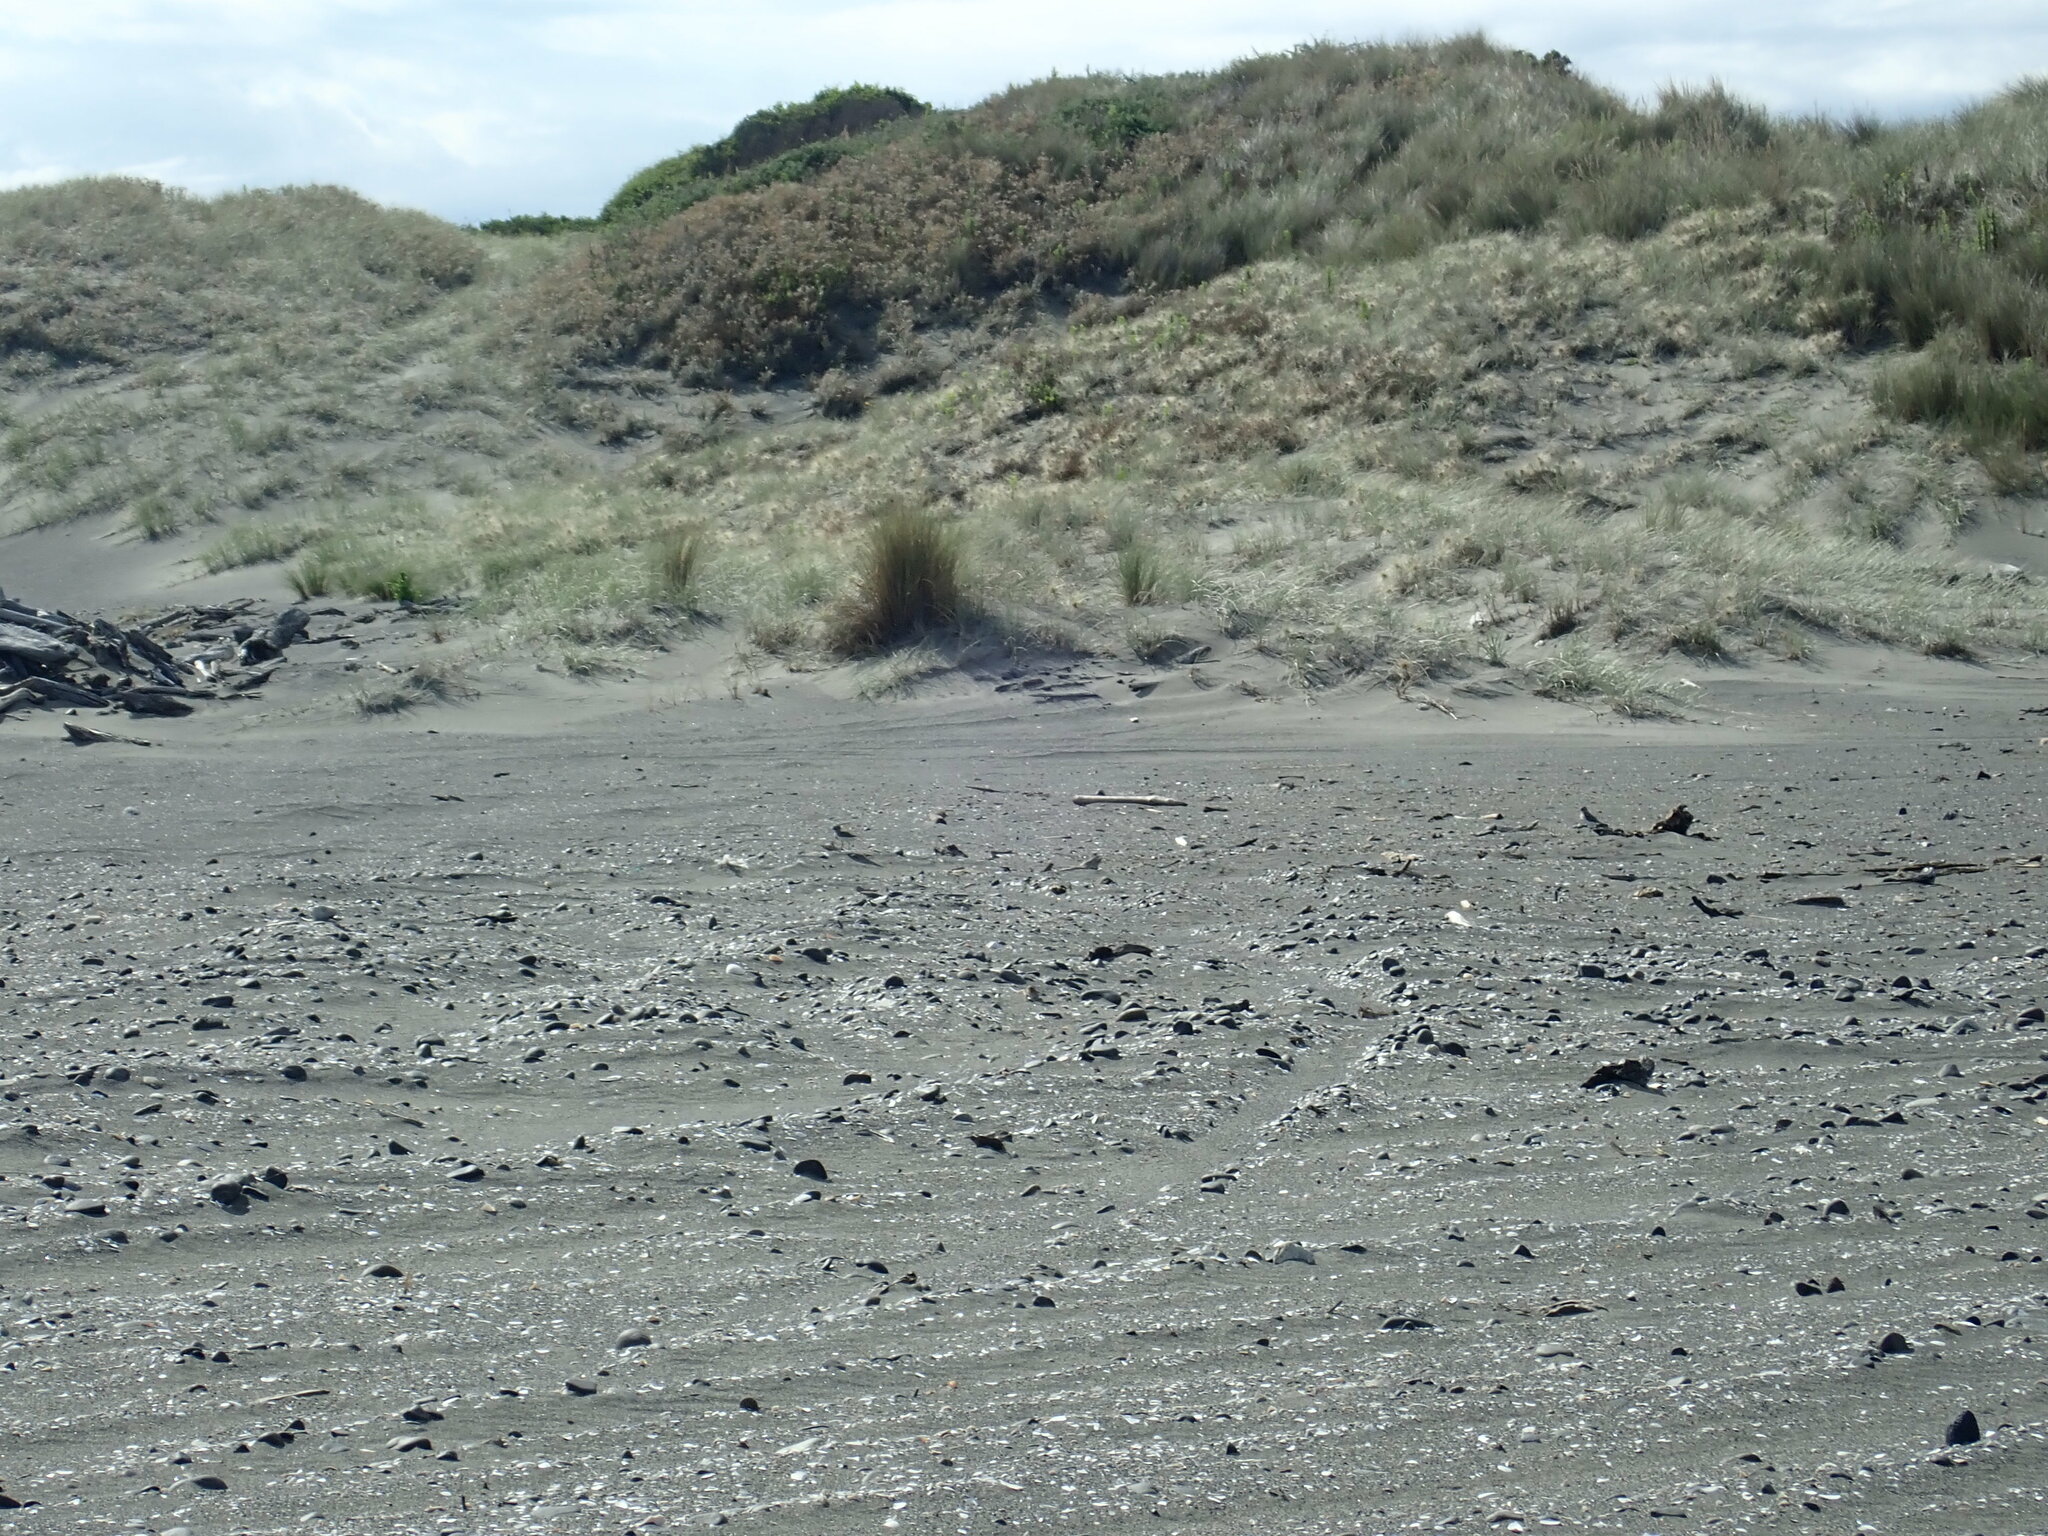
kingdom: Animalia
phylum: Chordata
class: Aves
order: Charadriiformes
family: Charadriidae
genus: Anarhynchus
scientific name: Anarhynchus
